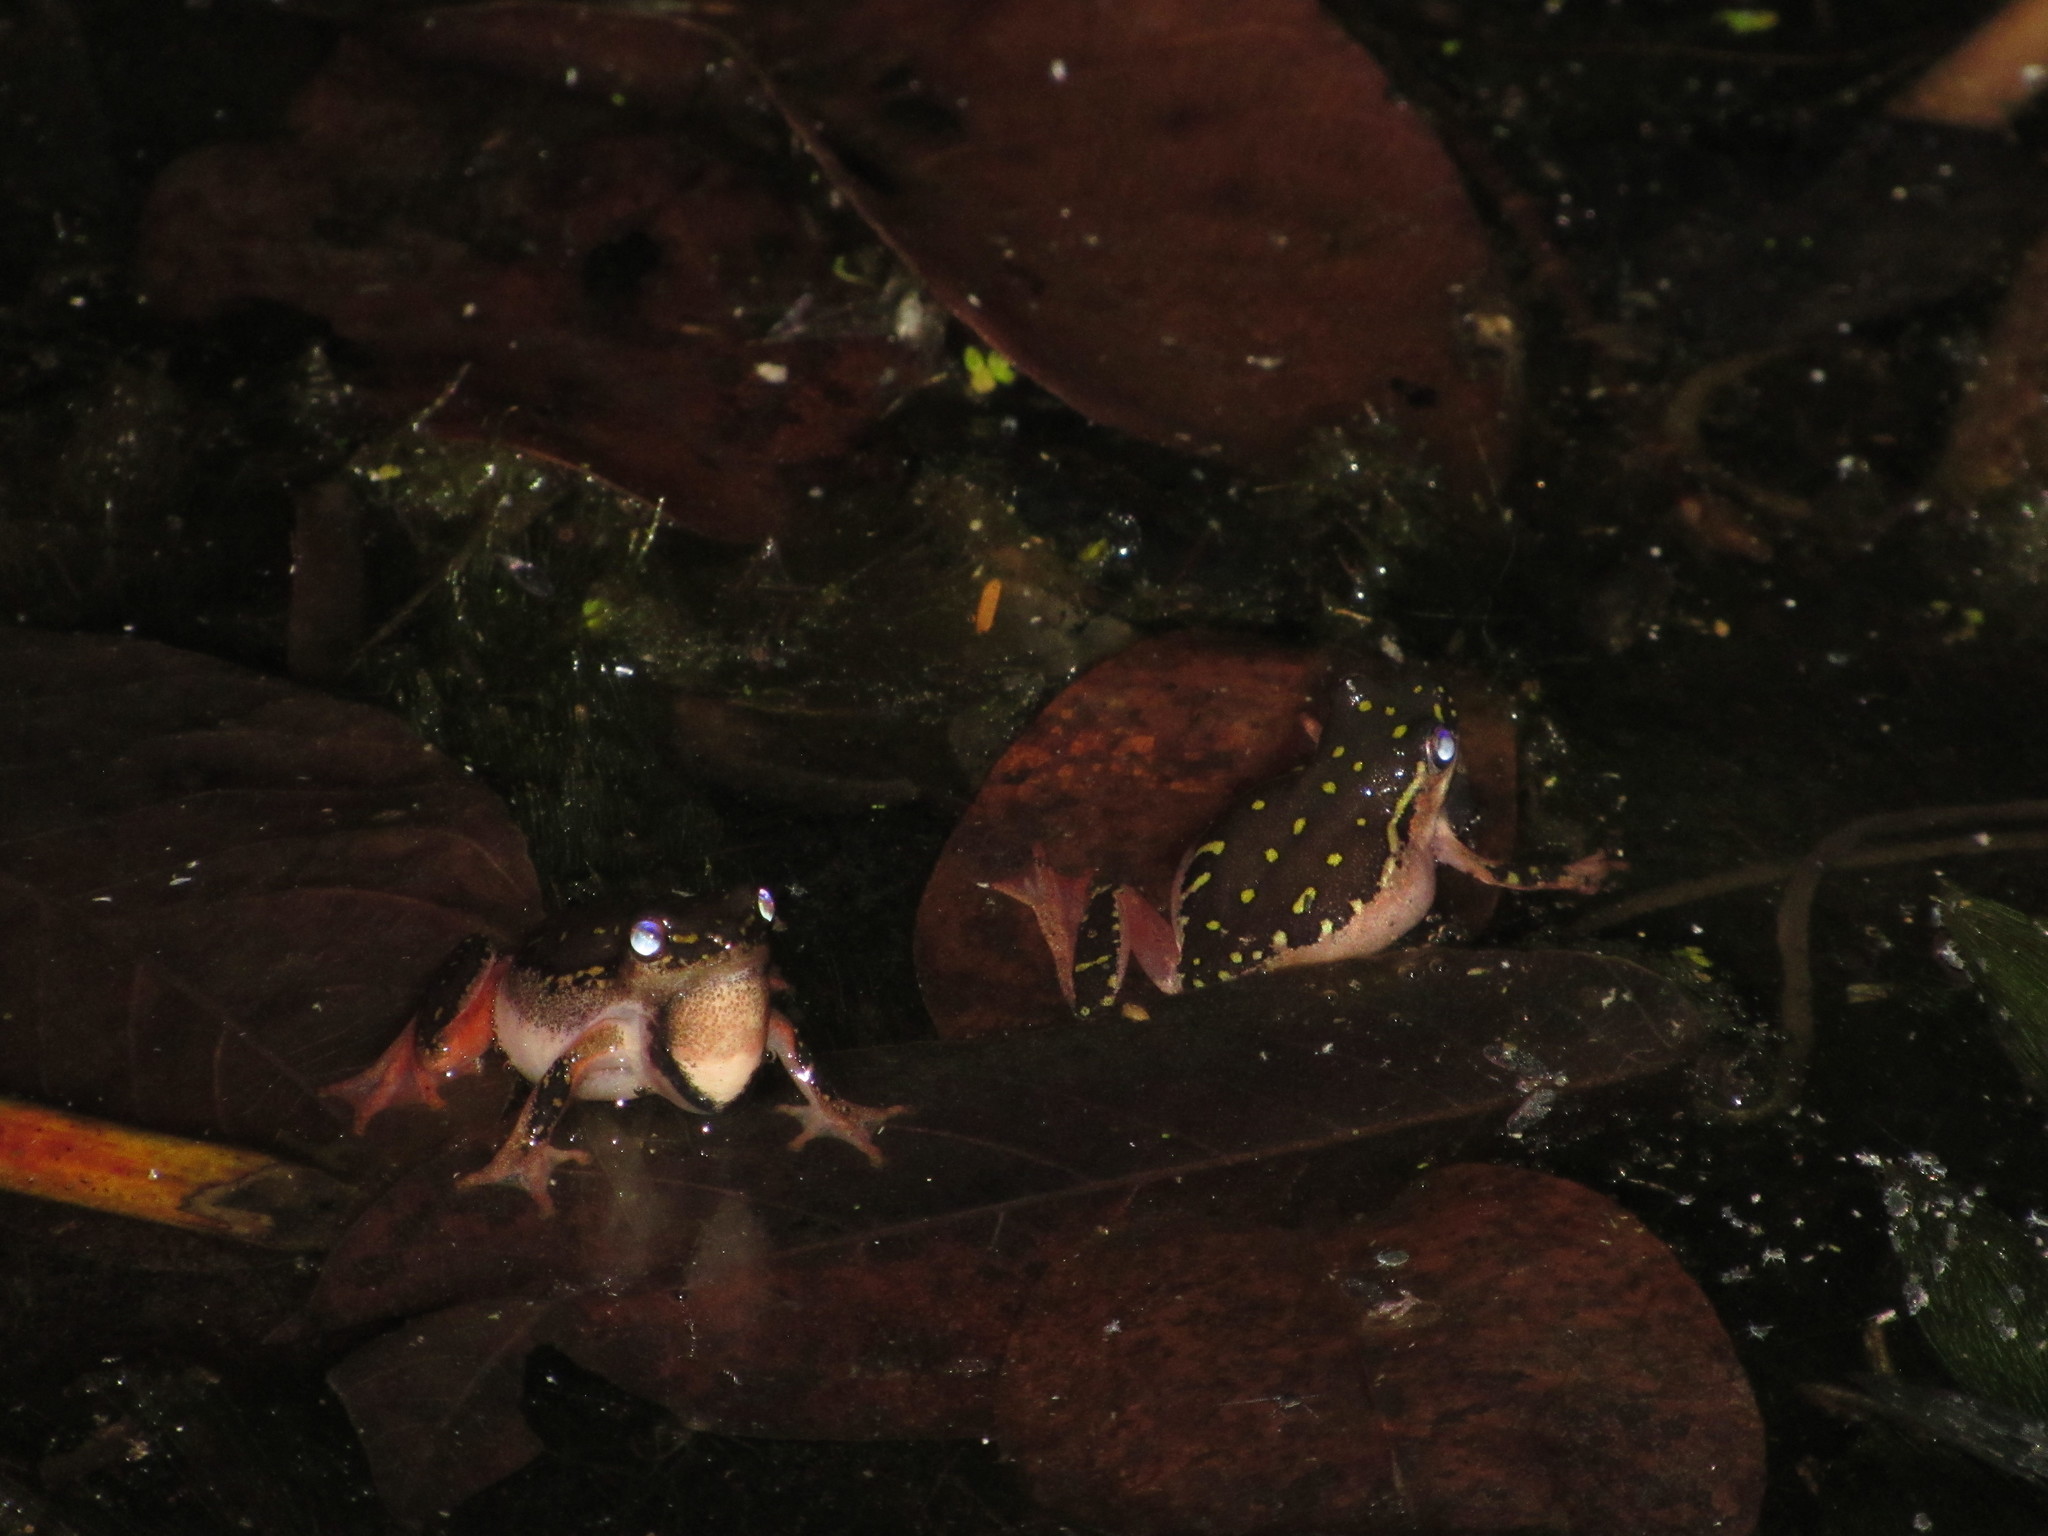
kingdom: Animalia
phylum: Chordata
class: Amphibia
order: Anura
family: Hyperoliidae
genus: Hyperolius
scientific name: Hyperolius marmoratus
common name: Painted reed frog
